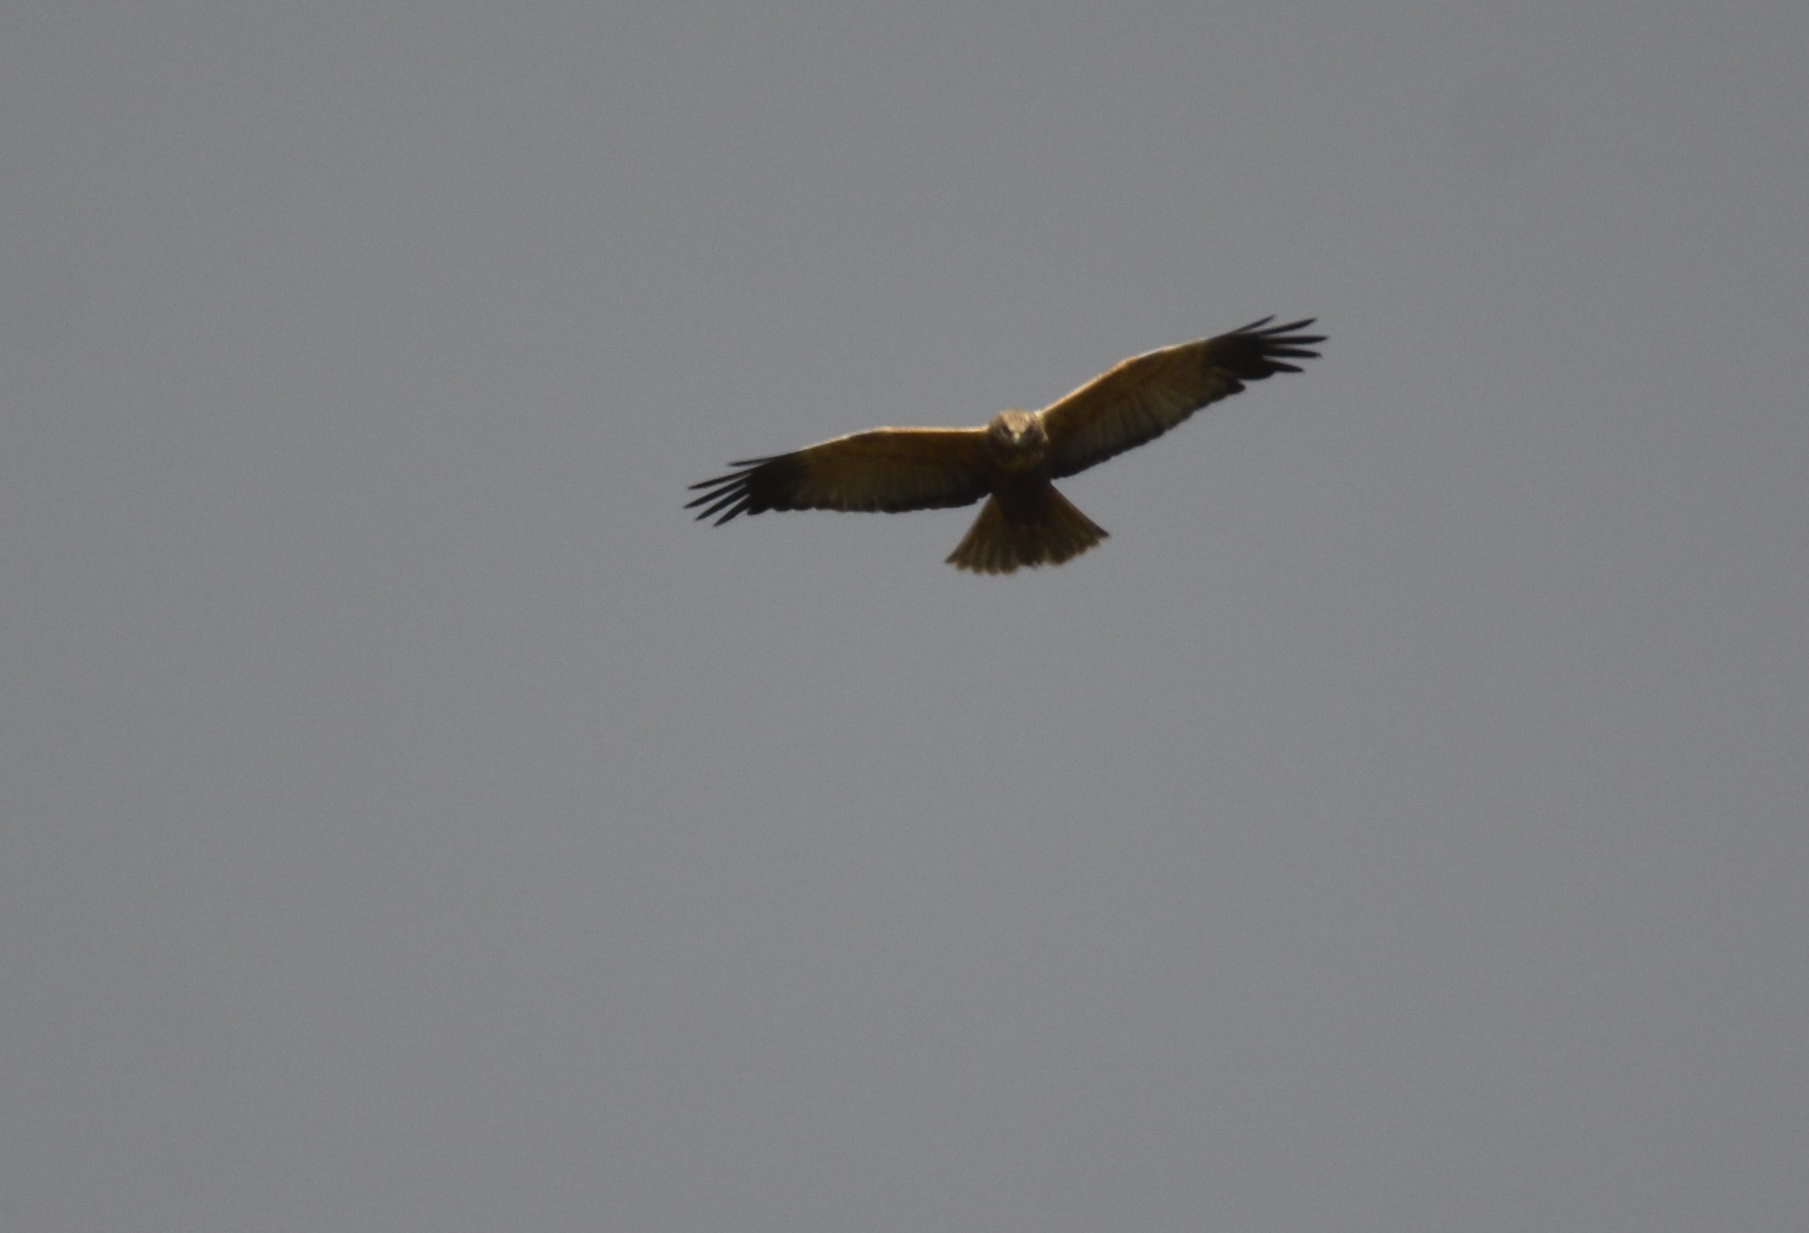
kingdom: Animalia
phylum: Chordata
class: Aves
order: Accipitriformes
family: Accipitridae
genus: Circus
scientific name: Circus aeruginosus
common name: Western marsh harrier
